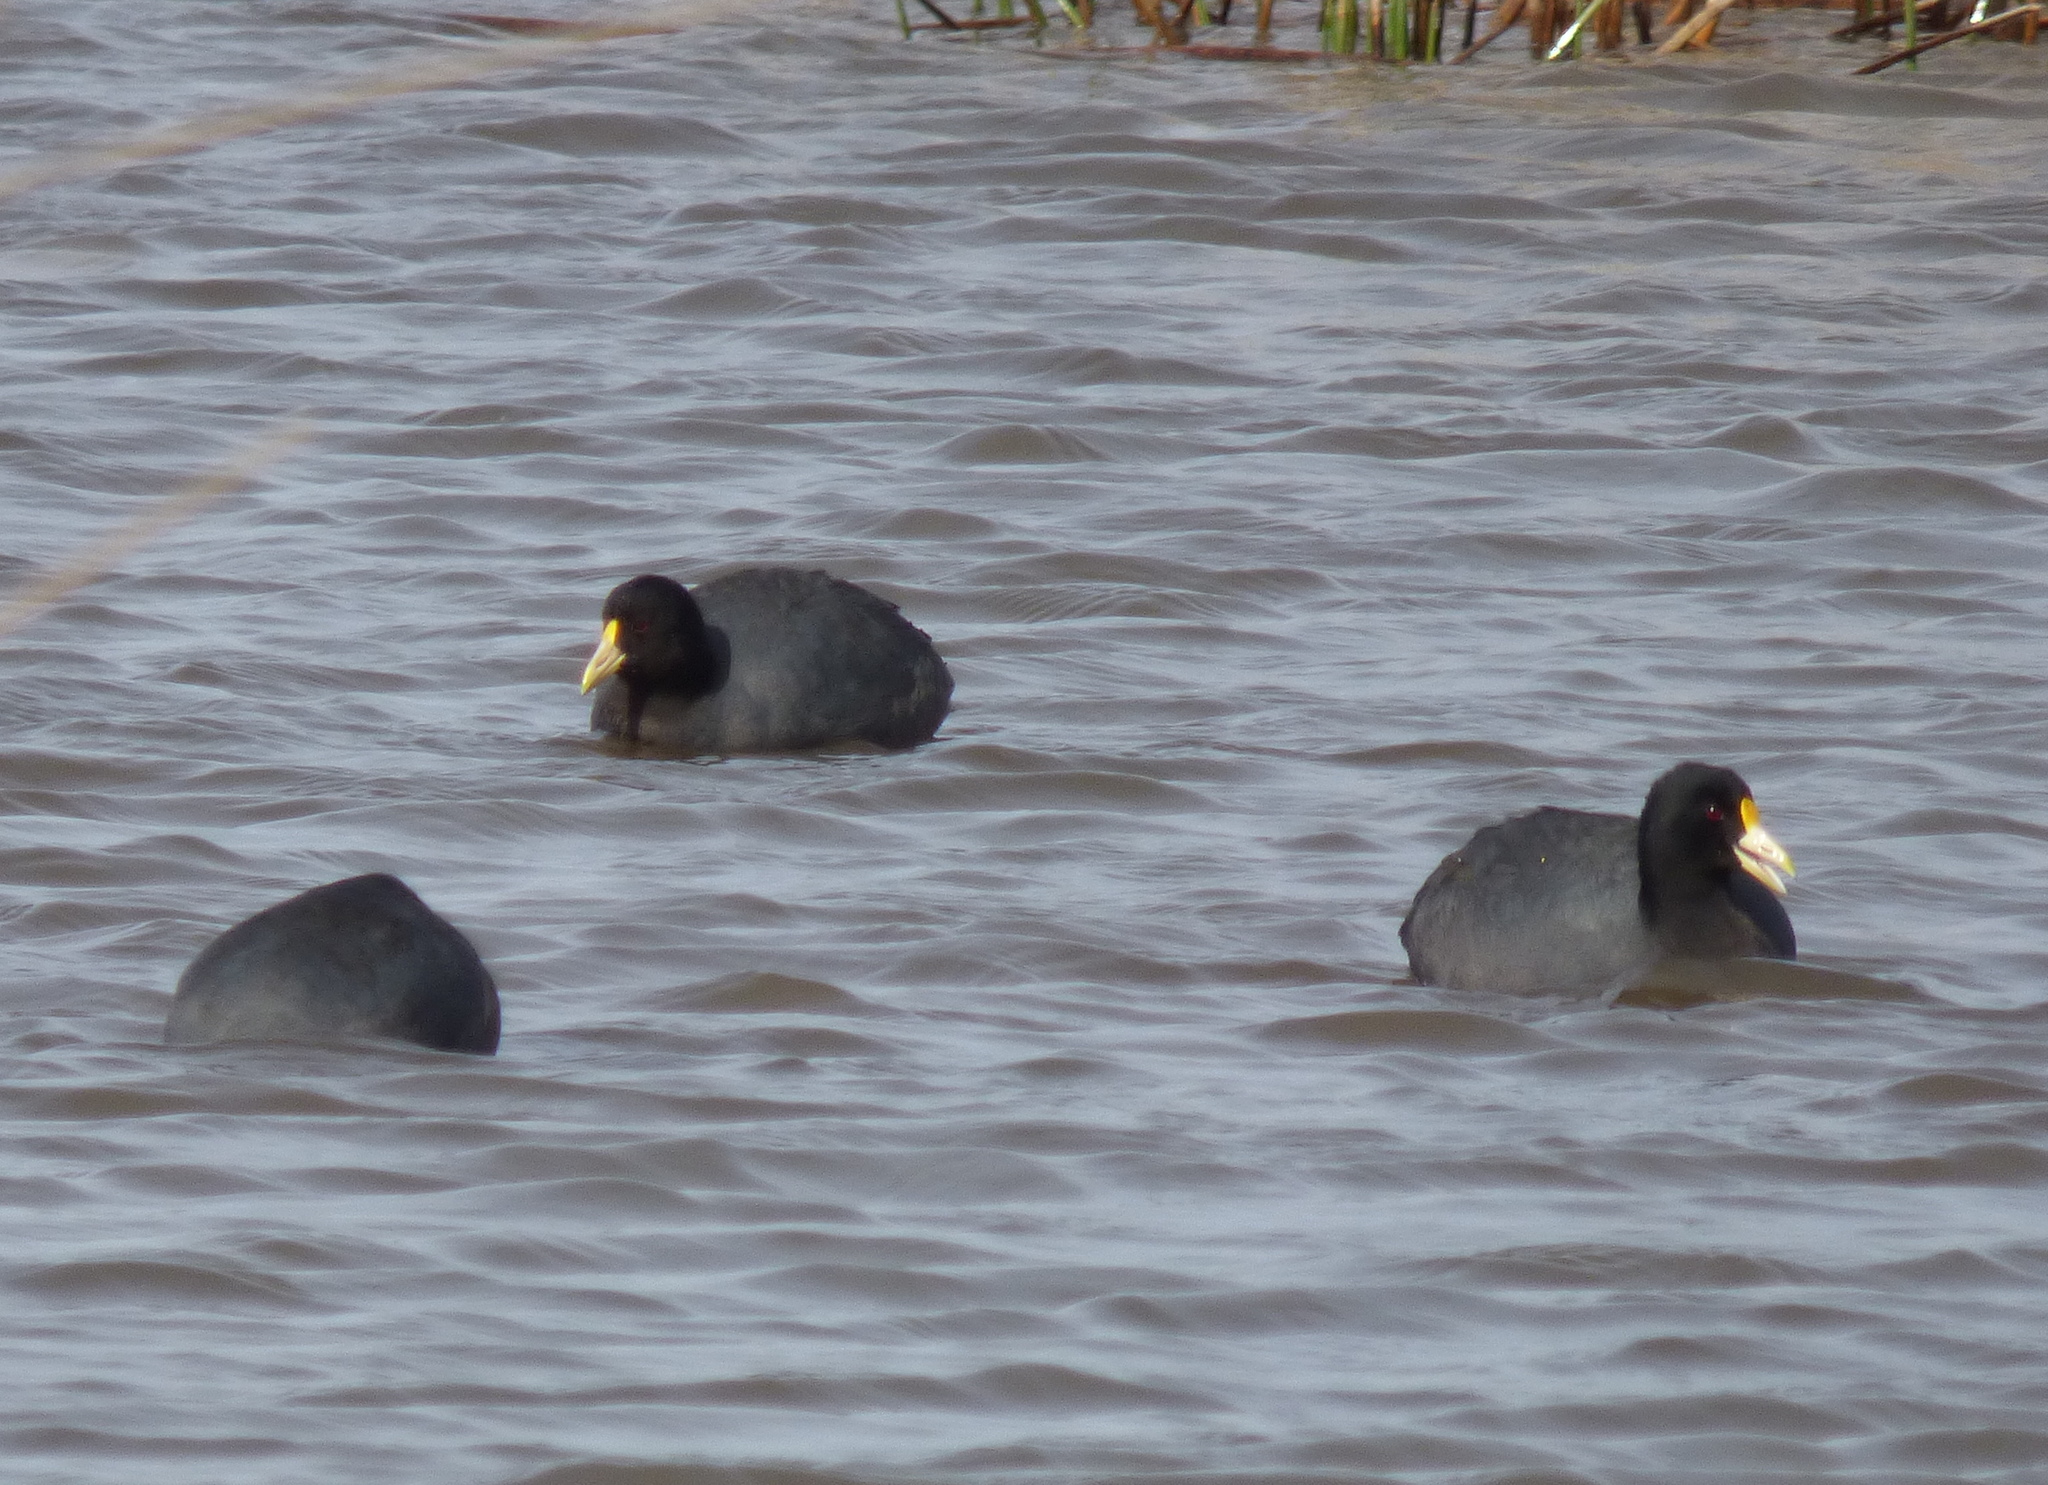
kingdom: Animalia
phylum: Chordata
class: Aves
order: Gruiformes
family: Rallidae
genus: Fulica
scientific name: Fulica leucoptera
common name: White-winged coot
